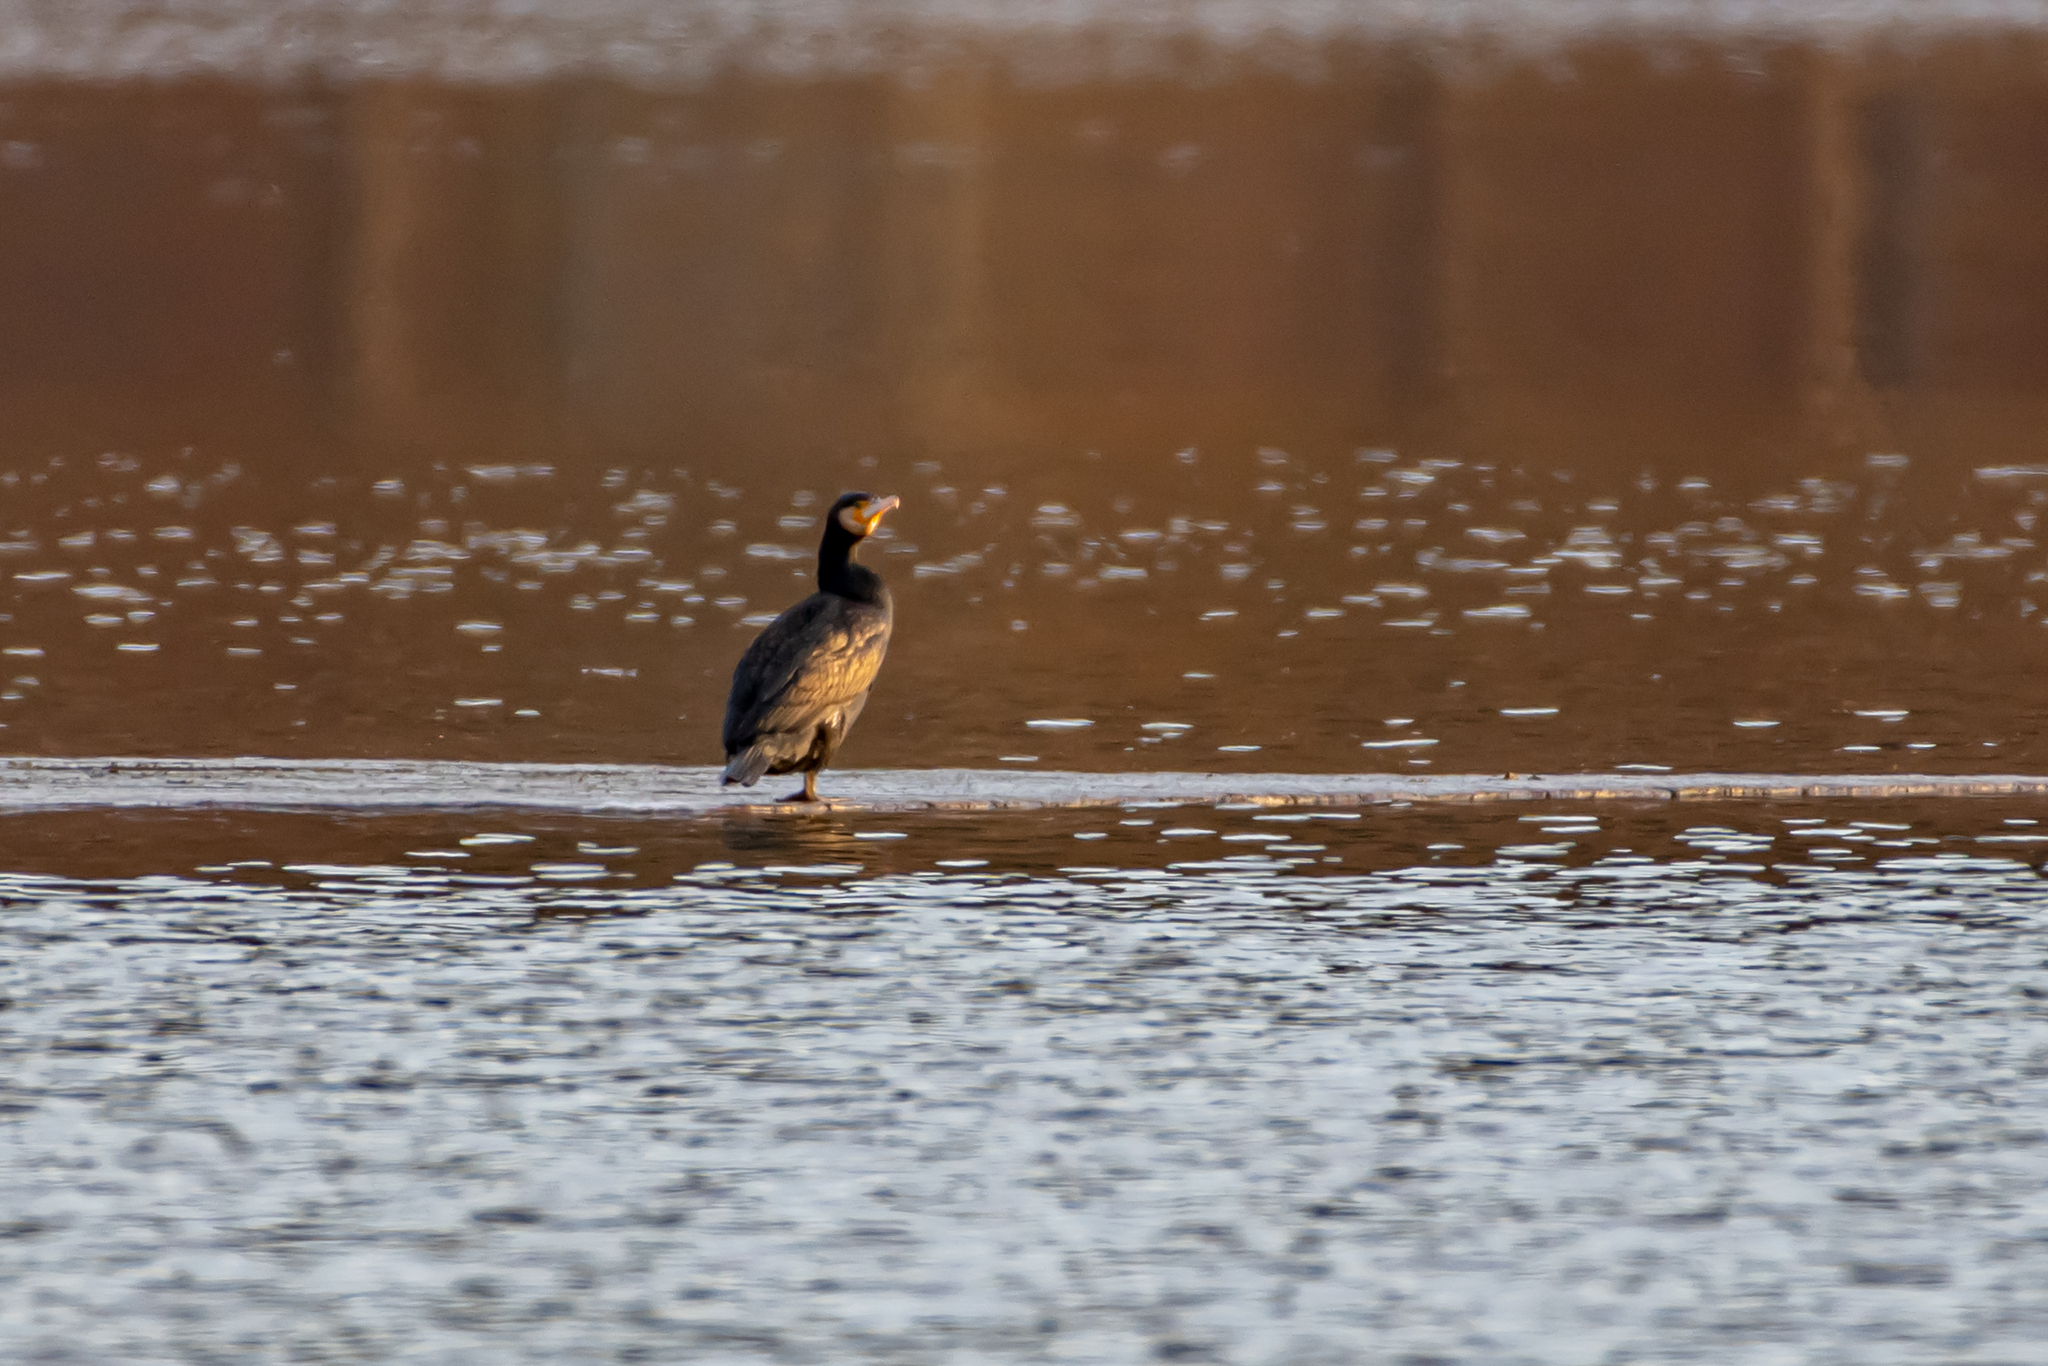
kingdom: Animalia
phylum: Chordata
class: Aves
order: Suliformes
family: Phalacrocoracidae
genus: Phalacrocorax
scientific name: Phalacrocorax carbo
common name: Great cormorant
